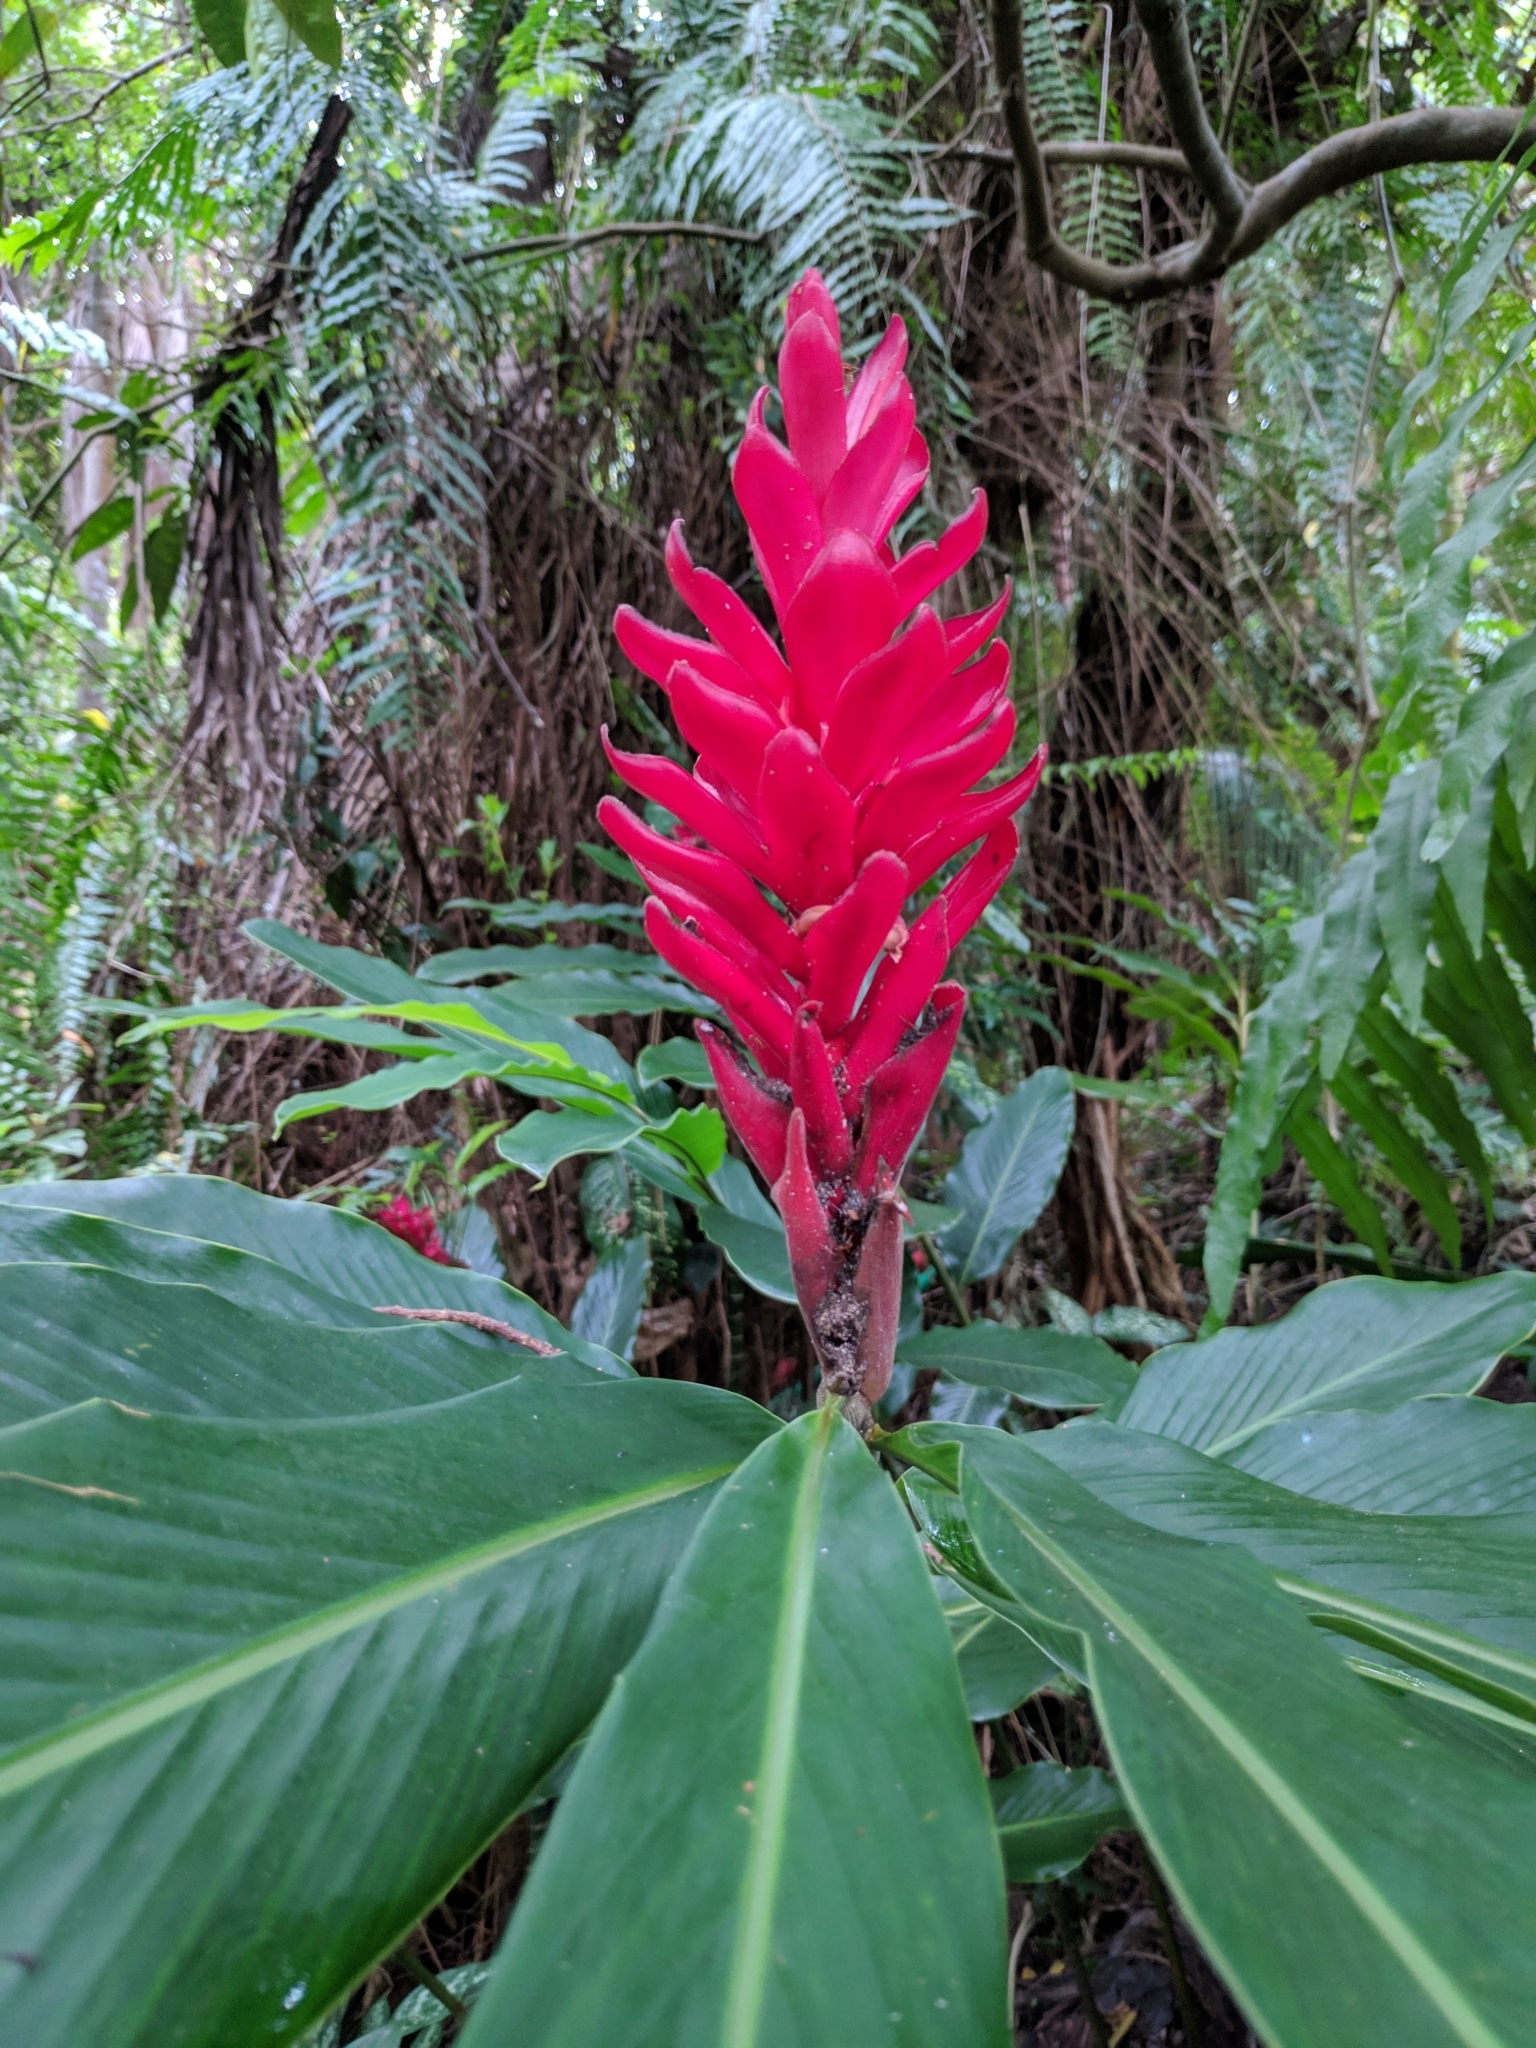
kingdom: Plantae
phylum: Tracheophyta
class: Liliopsida
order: Zingiberales
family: Zingiberaceae
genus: Alpinia
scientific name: Alpinia purpurata
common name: Red ginger
